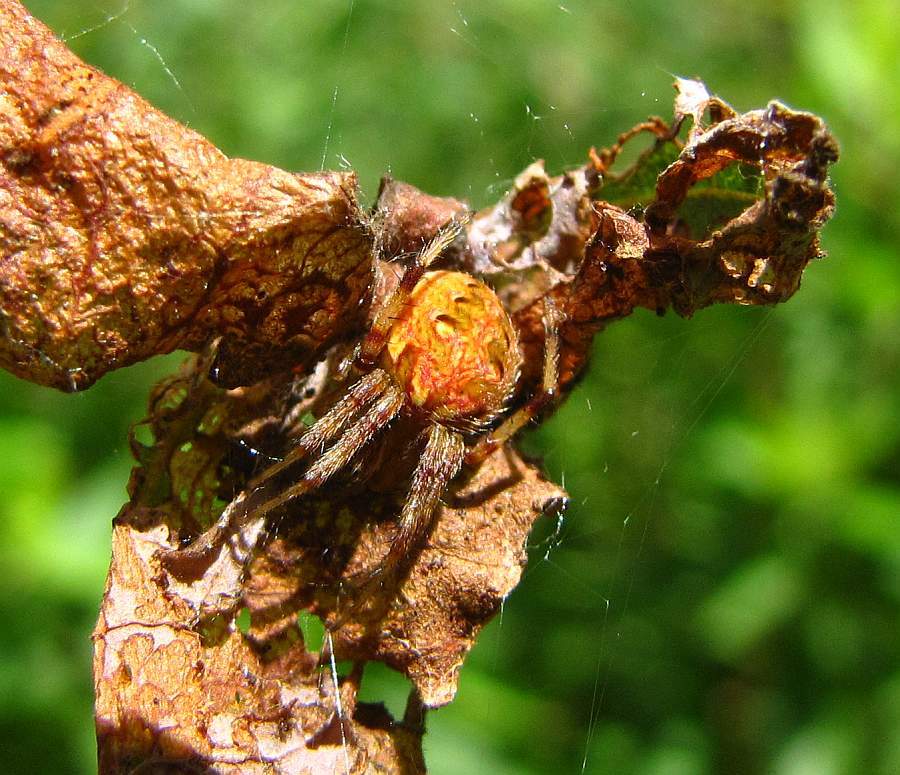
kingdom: Animalia
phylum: Arthropoda
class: Arachnida
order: Araneae
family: Araneidae
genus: Neoscona
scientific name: Neoscona arabesca
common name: Orb weavers
